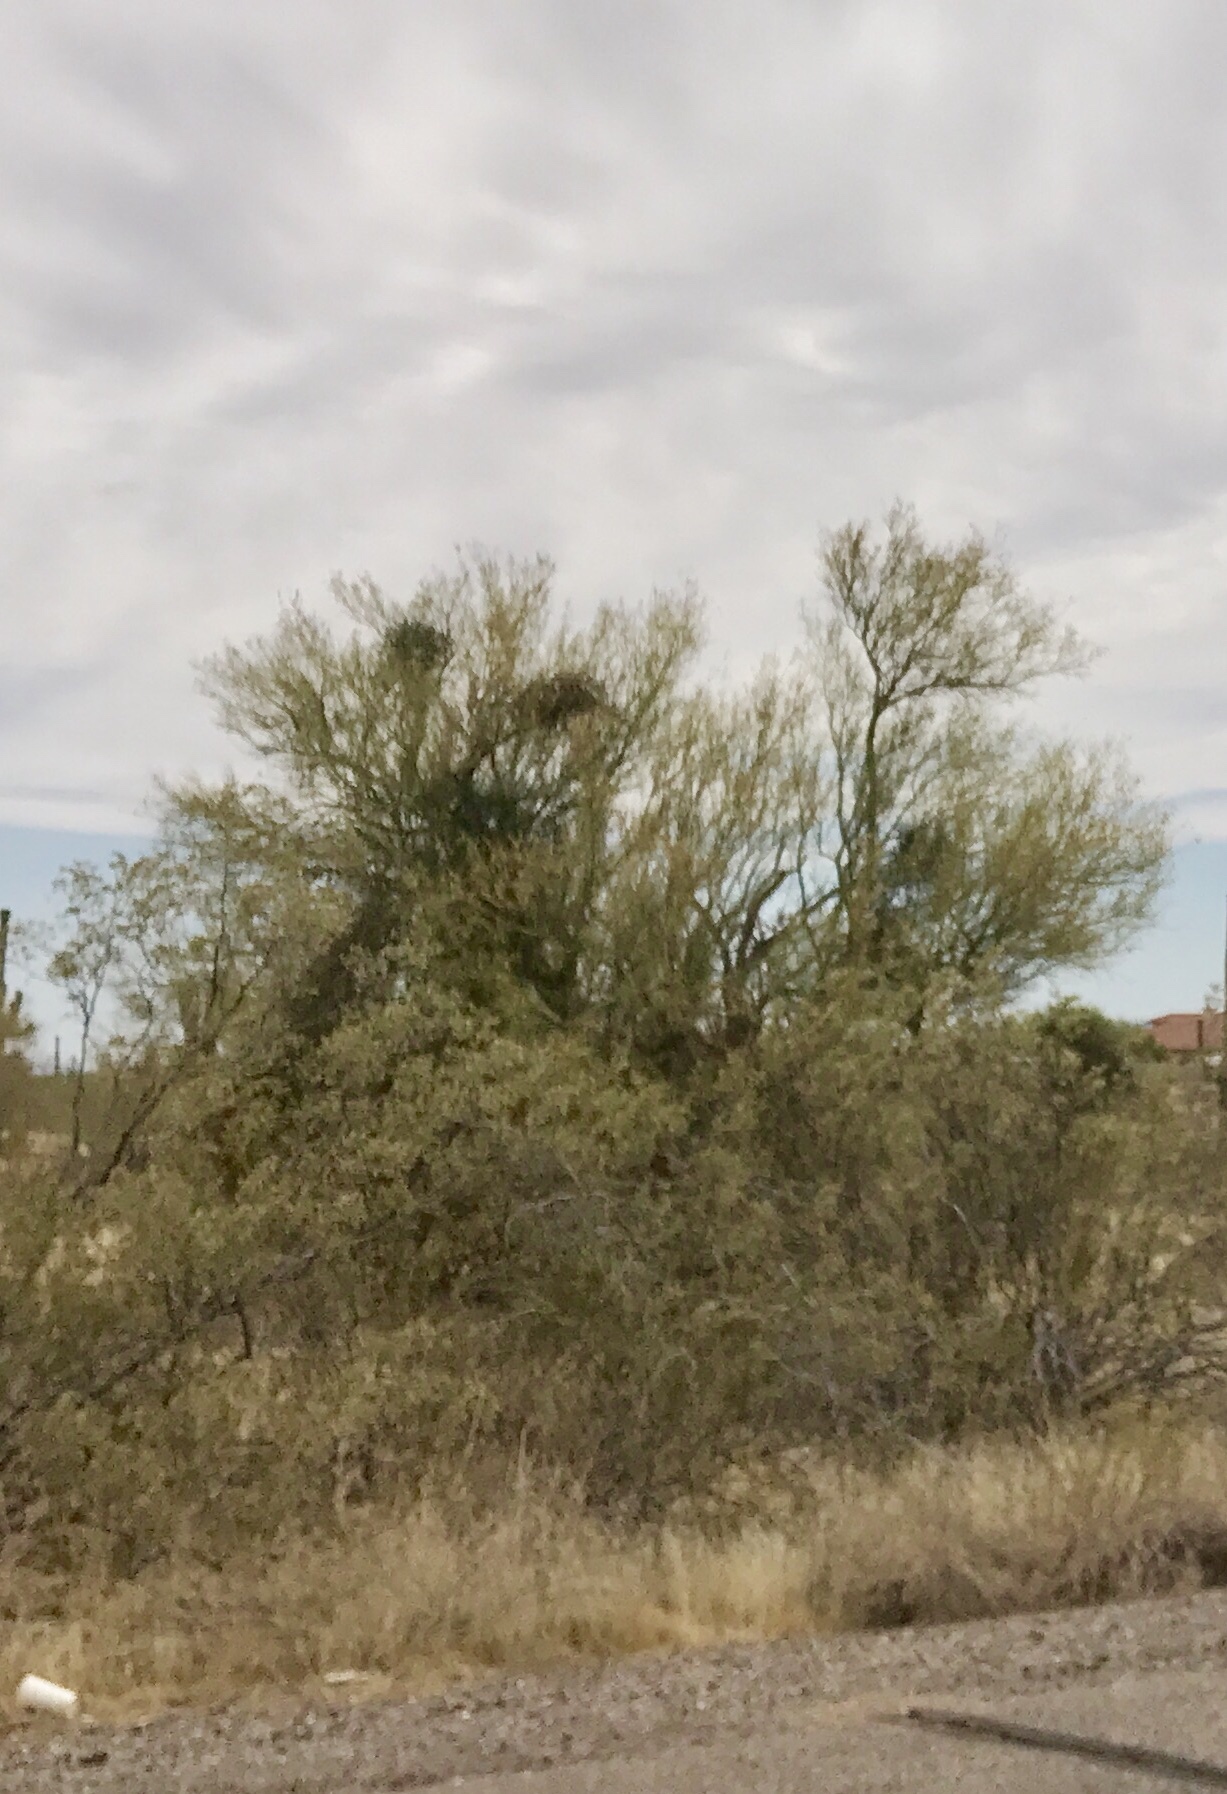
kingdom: Plantae
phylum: Tracheophyta
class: Magnoliopsida
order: Fabales
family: Fabaceae
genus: Parkinsonia
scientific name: Parkinsonia microphylla
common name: Yellow paloverde
